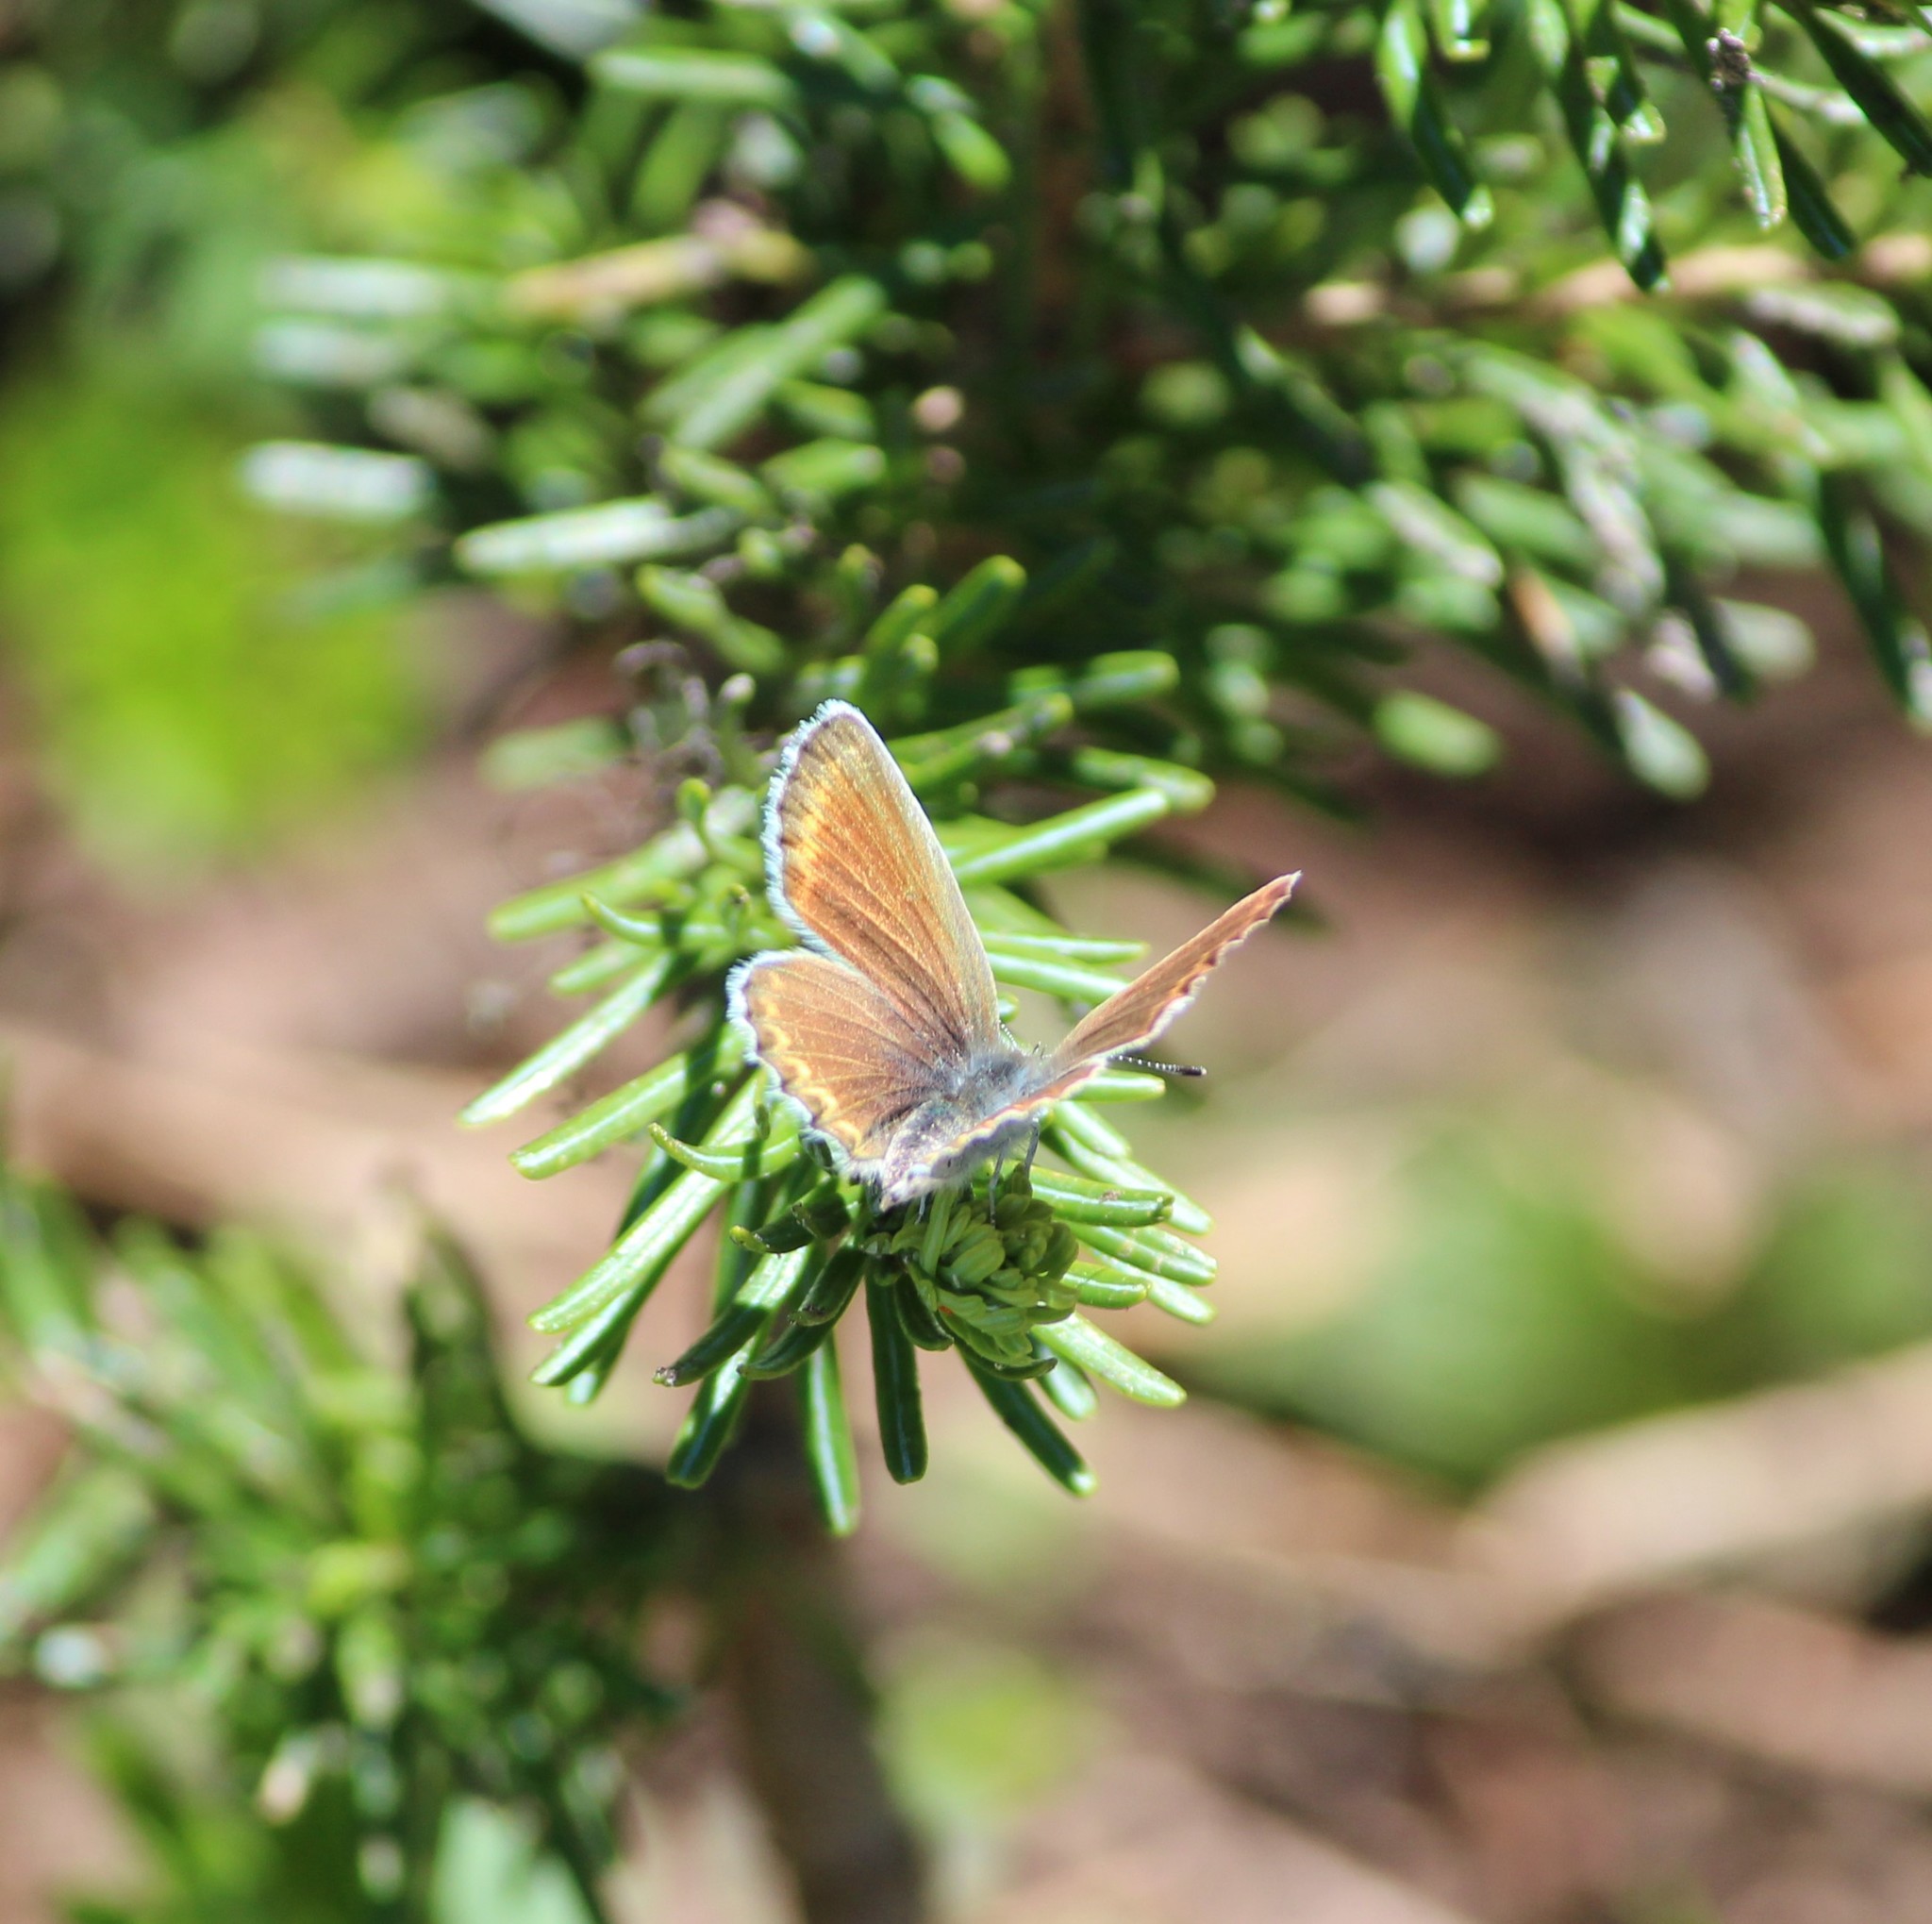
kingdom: Animalia
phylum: Arthropoda
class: Insecta
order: Lepidoptera
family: Lycaenidae
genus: Lycaeides
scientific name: Lycaeides anna
